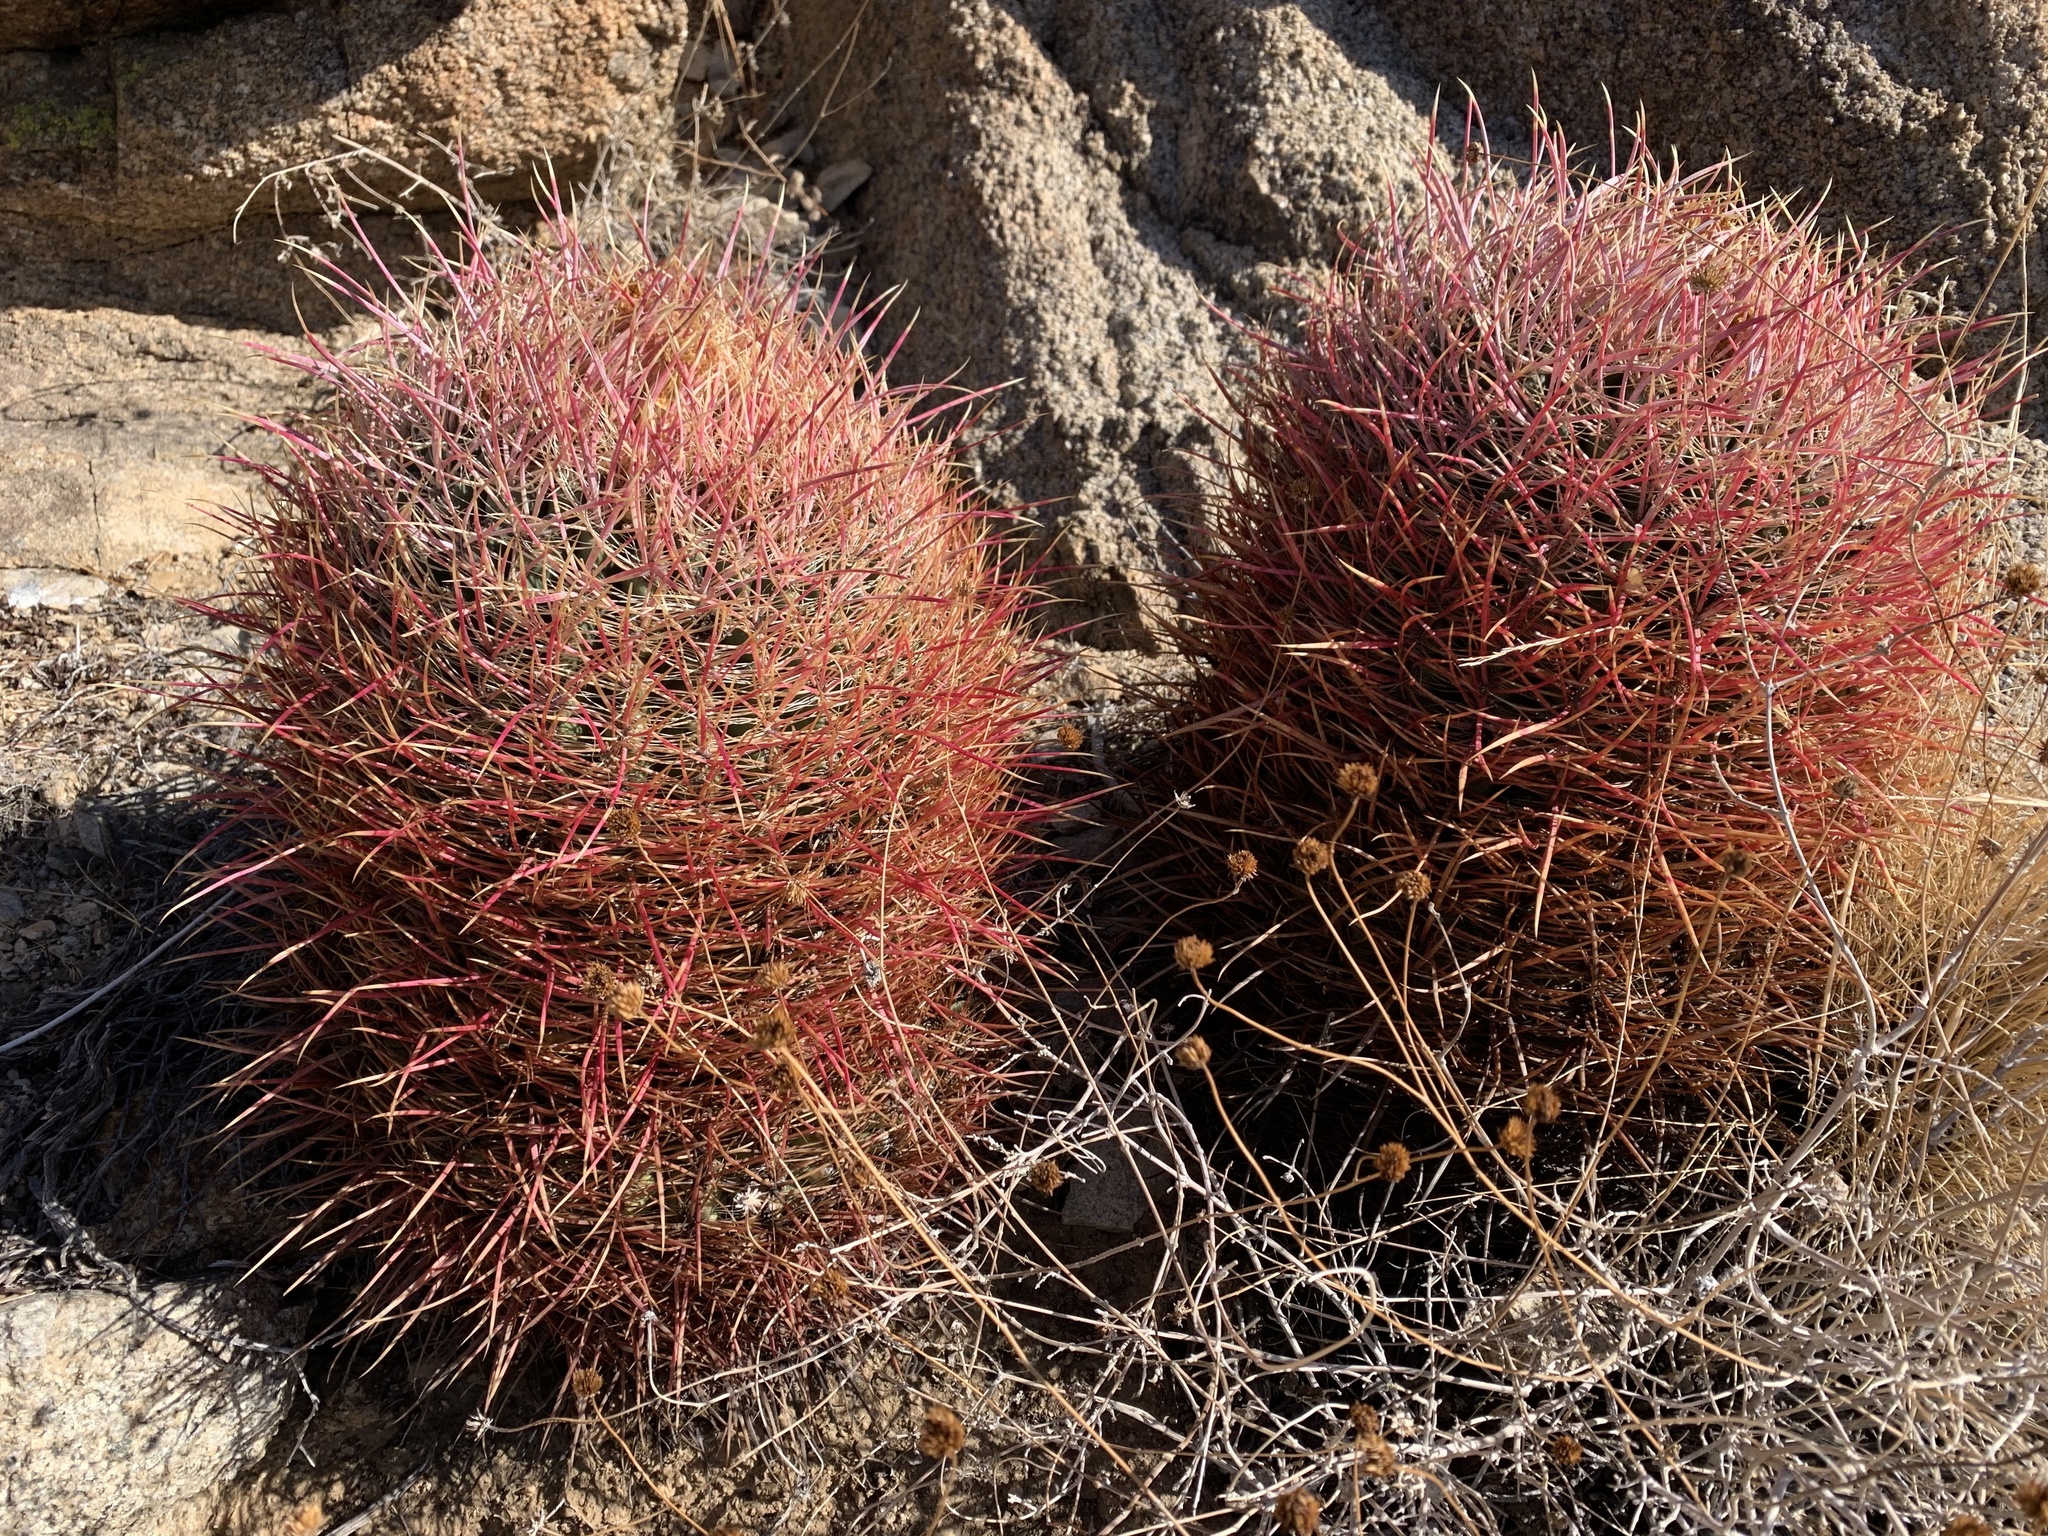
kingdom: Plantae
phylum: Tracheophyta
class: Magnoliopsida
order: Caryophyllales
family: Cactaceae
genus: Ferocactus
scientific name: Ferocactus cylindraceus
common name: California barrel cactus
